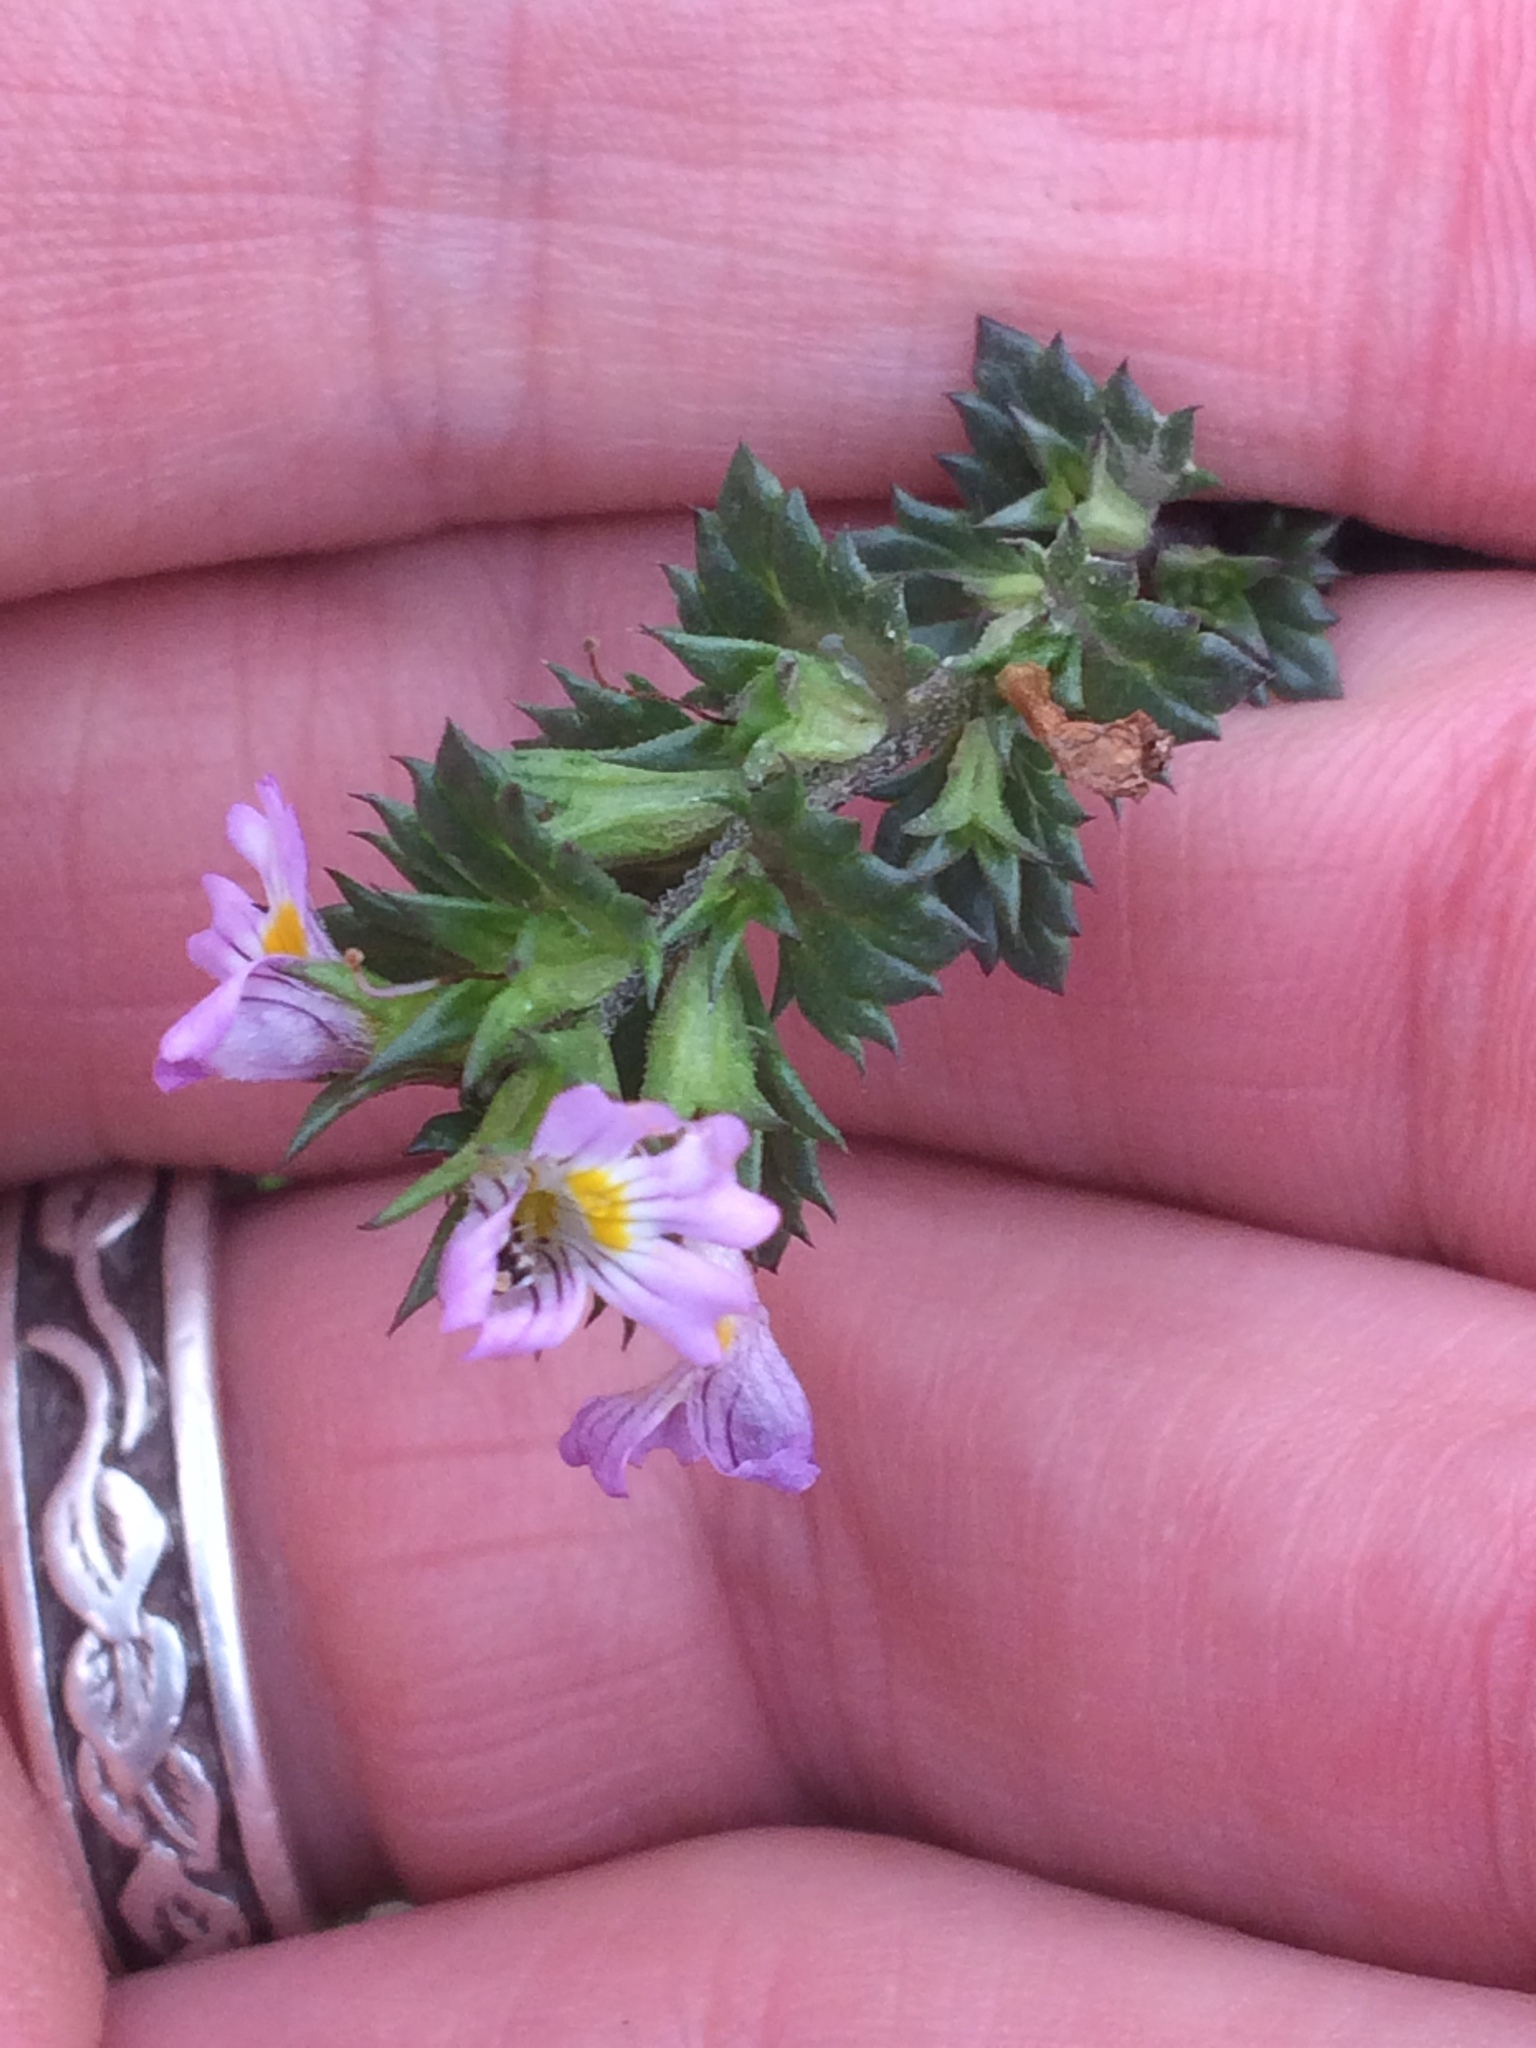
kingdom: Plantae
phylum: Tracheophyta
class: Magnoliopsida
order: Lamiales
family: Orobanchaceae
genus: Euphrasia
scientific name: Euphrasia nemorosa
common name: Common eyebright
